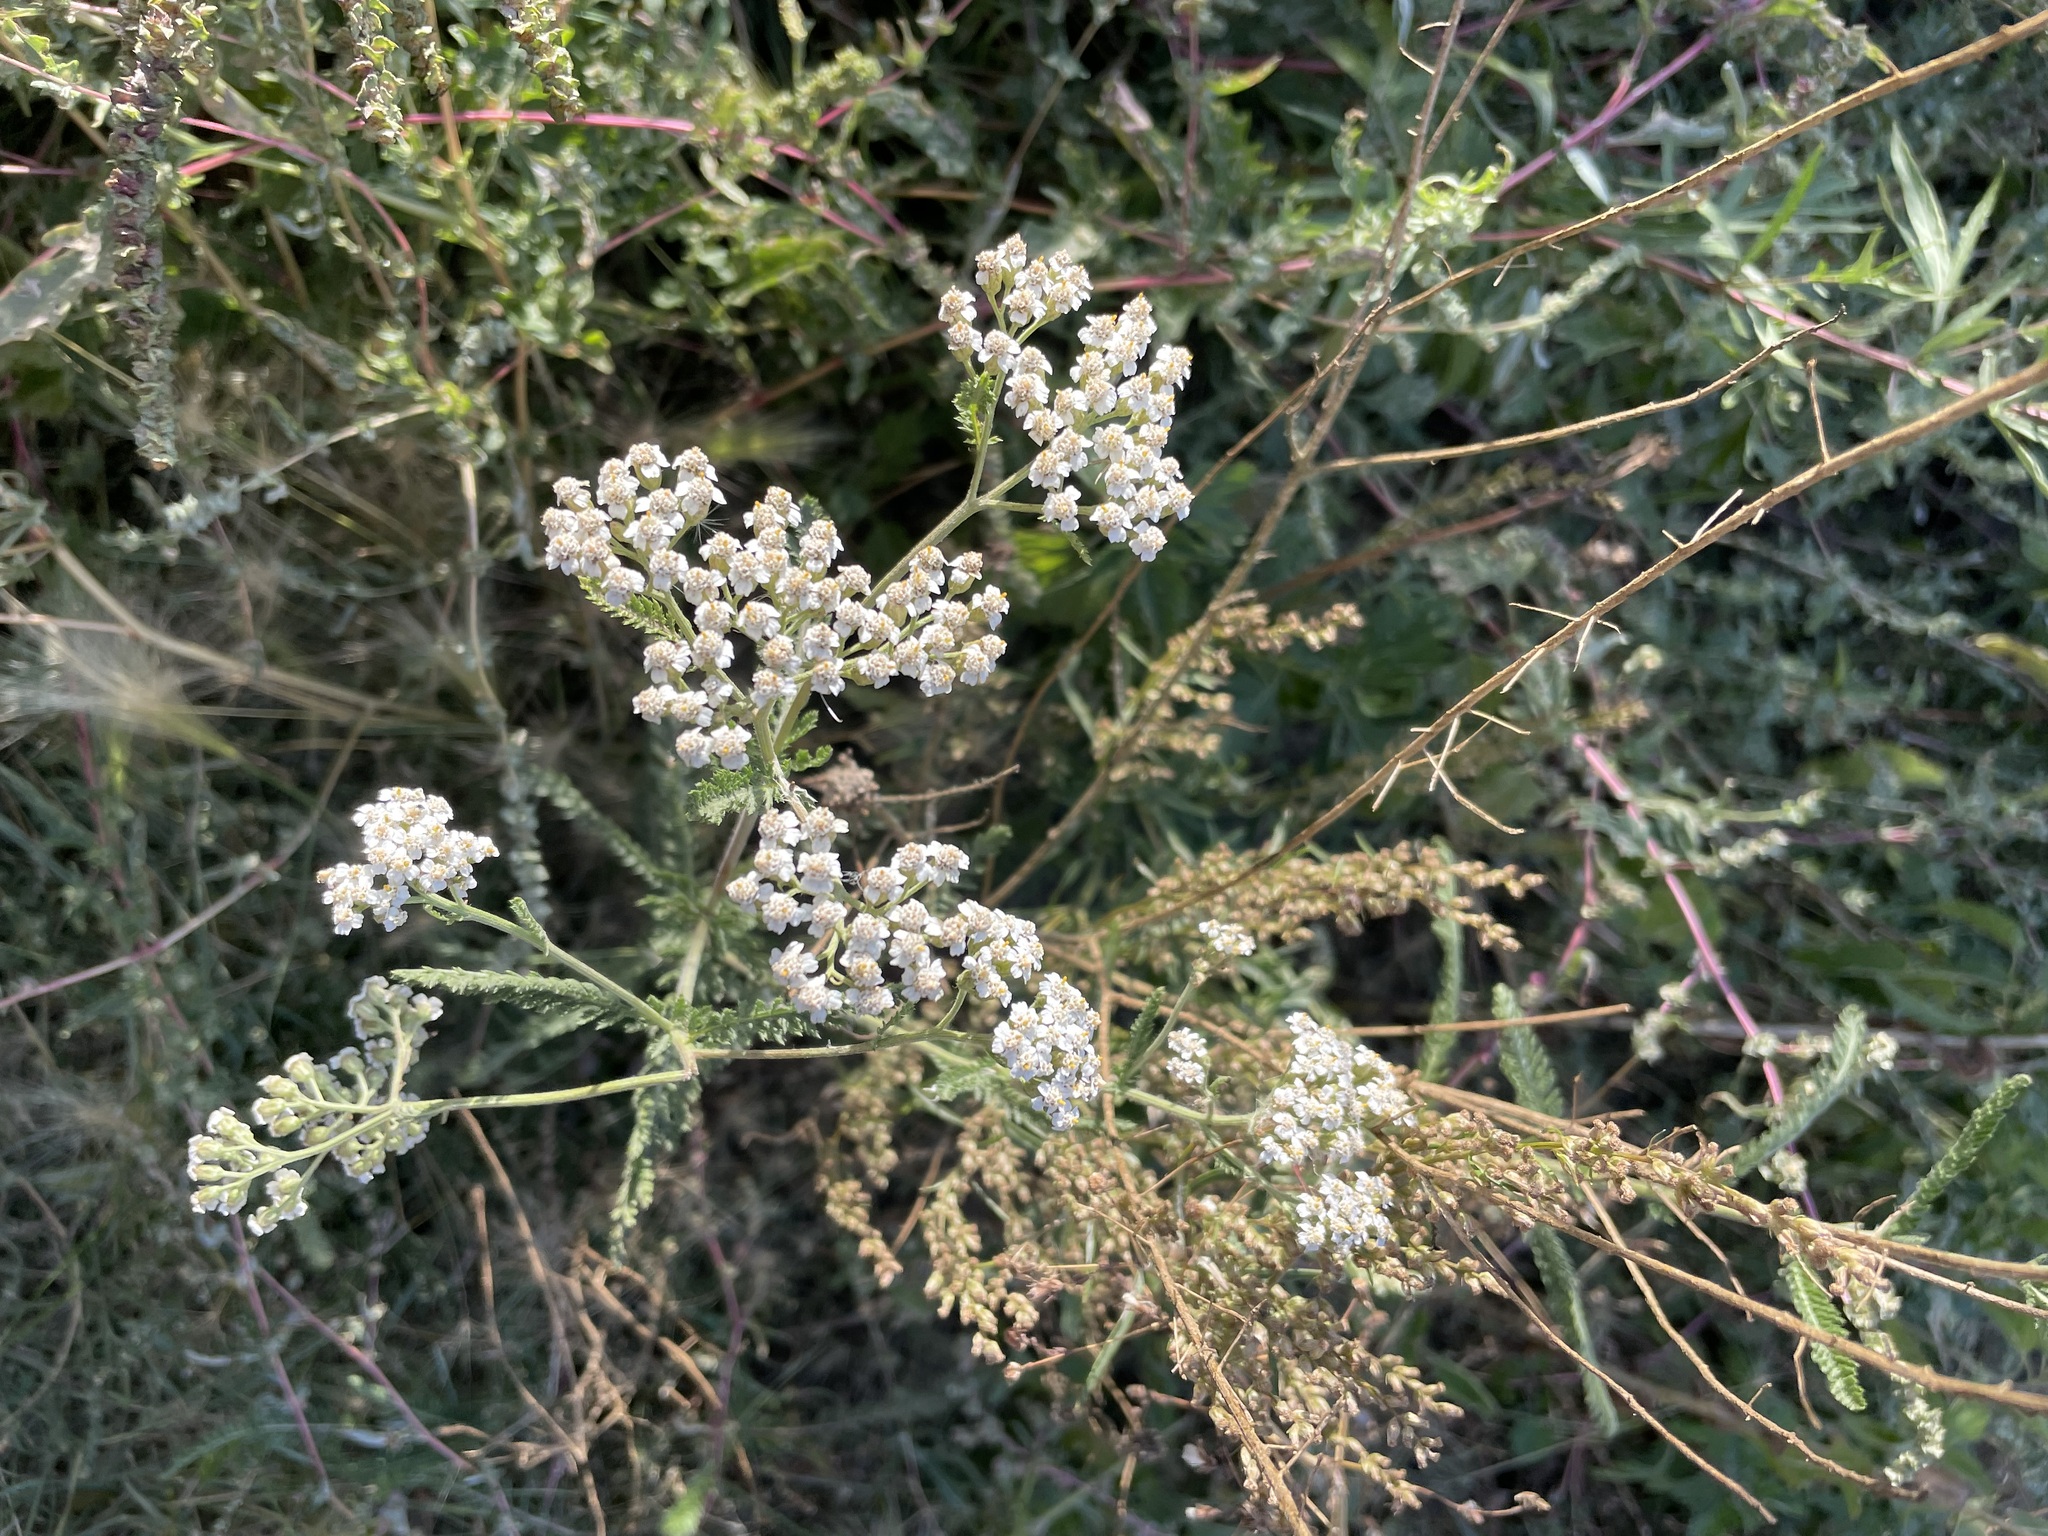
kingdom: Plantae
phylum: Tracheophyta
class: Magnoliopsida
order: Asterales
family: Asteraceae
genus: Achillea
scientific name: Achillea millefolium
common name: Yarrow
